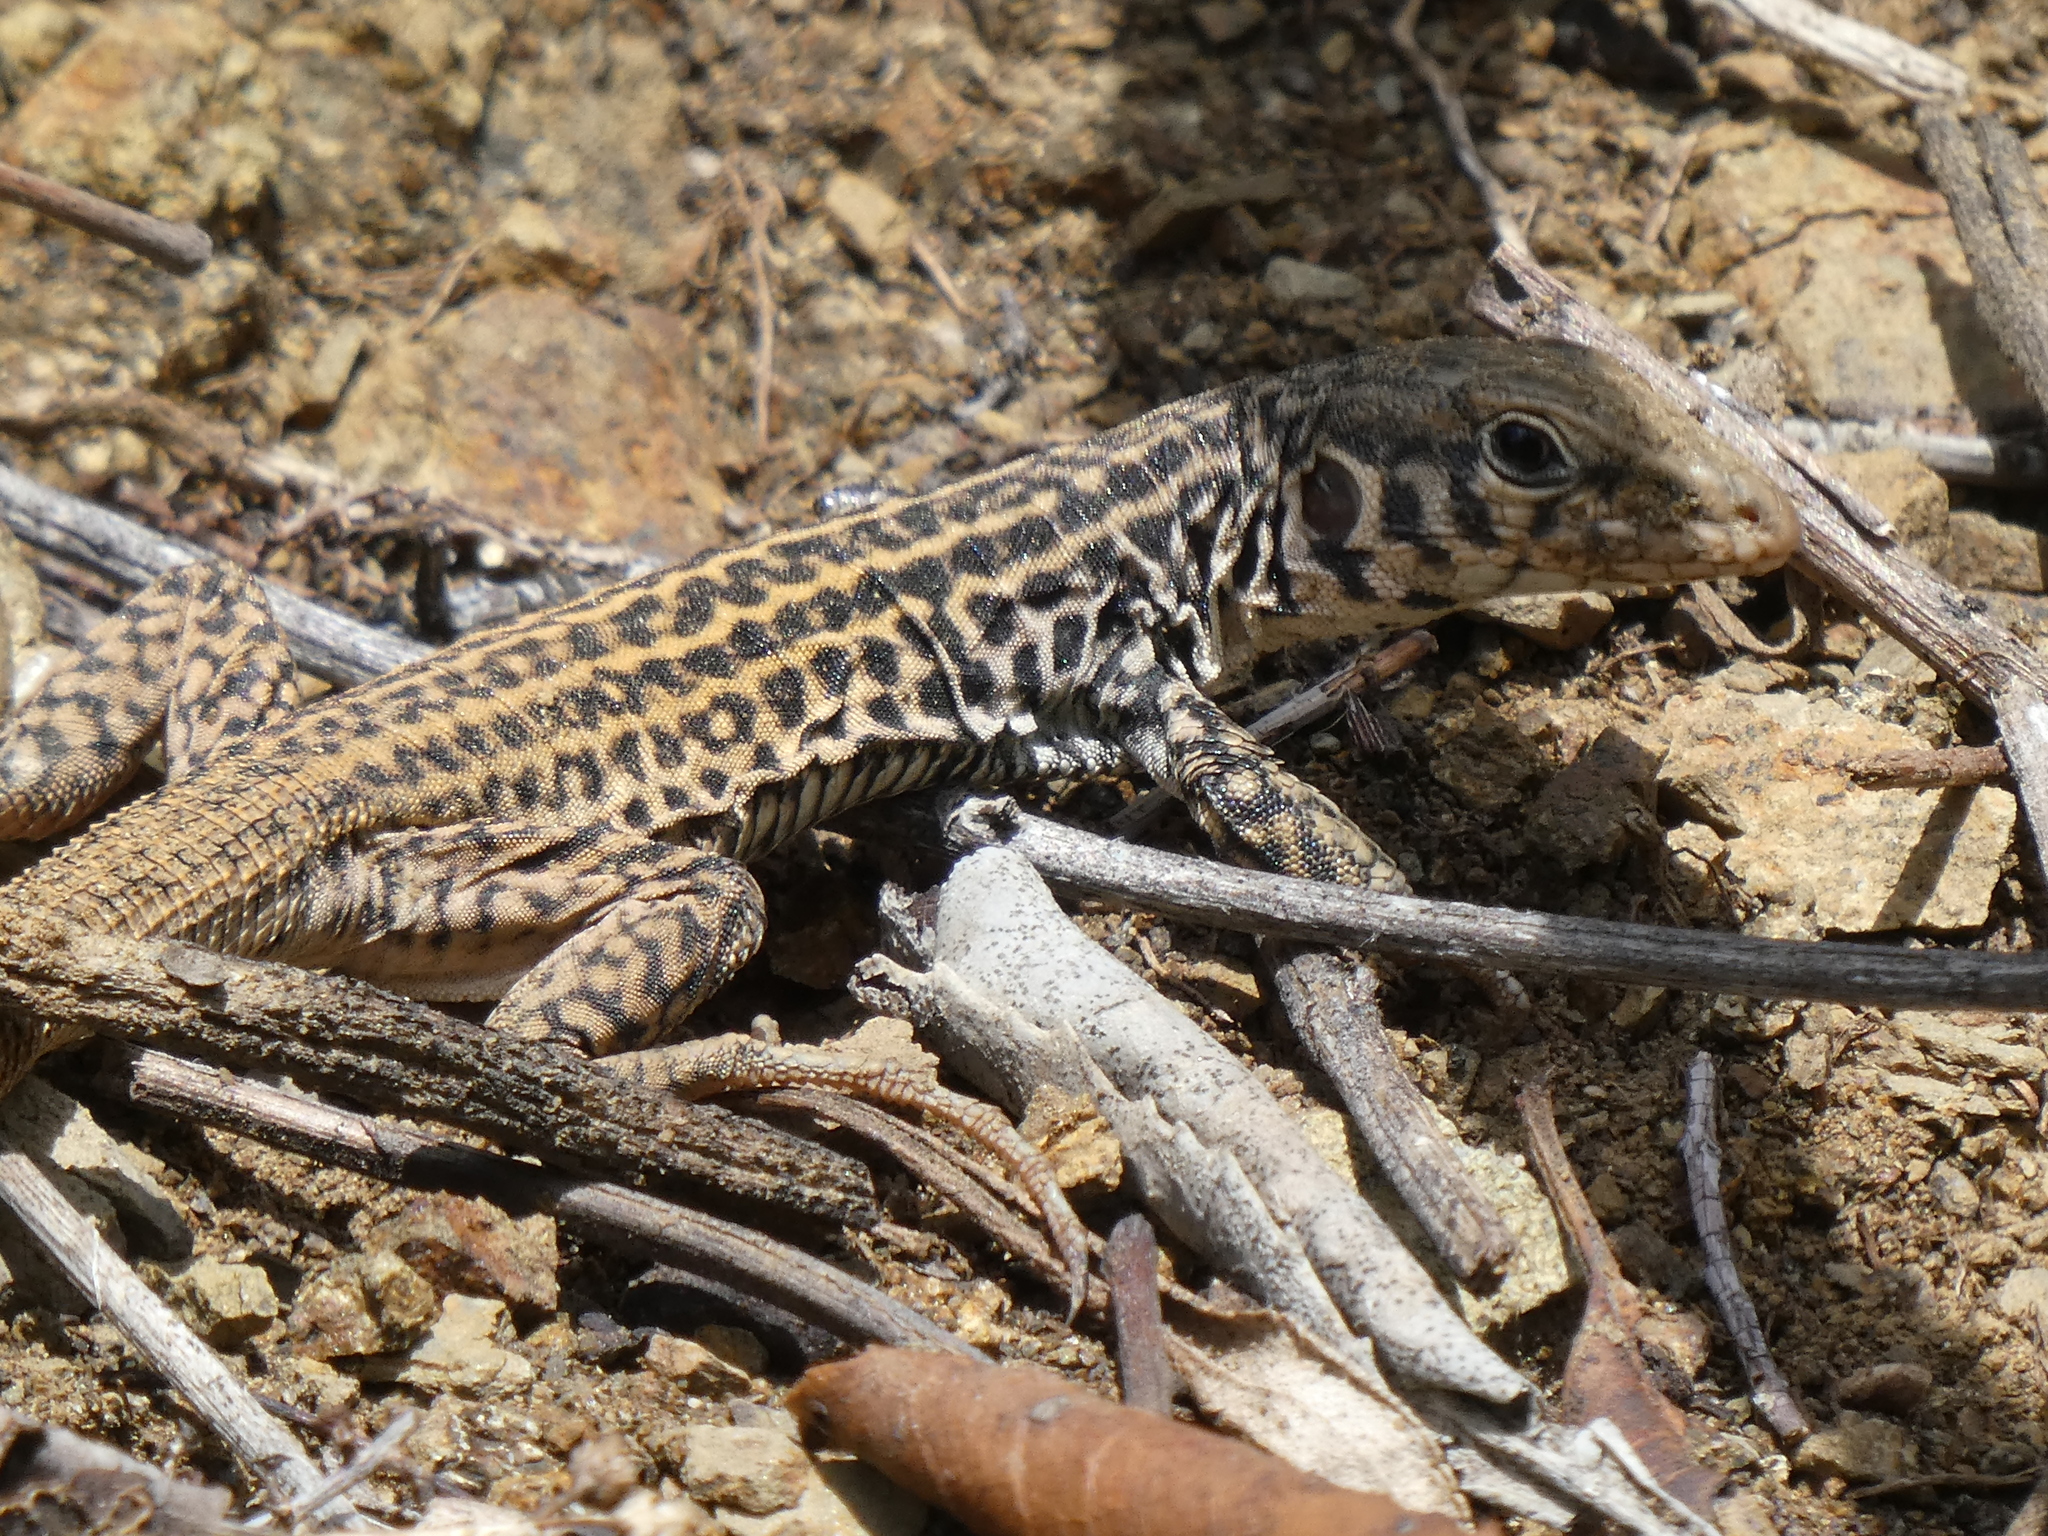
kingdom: Animalia
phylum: Chordata
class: Squamata
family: Teiidae
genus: Aspidoscelis
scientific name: Aspidoscelis tigris
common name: Tiger whiptail
